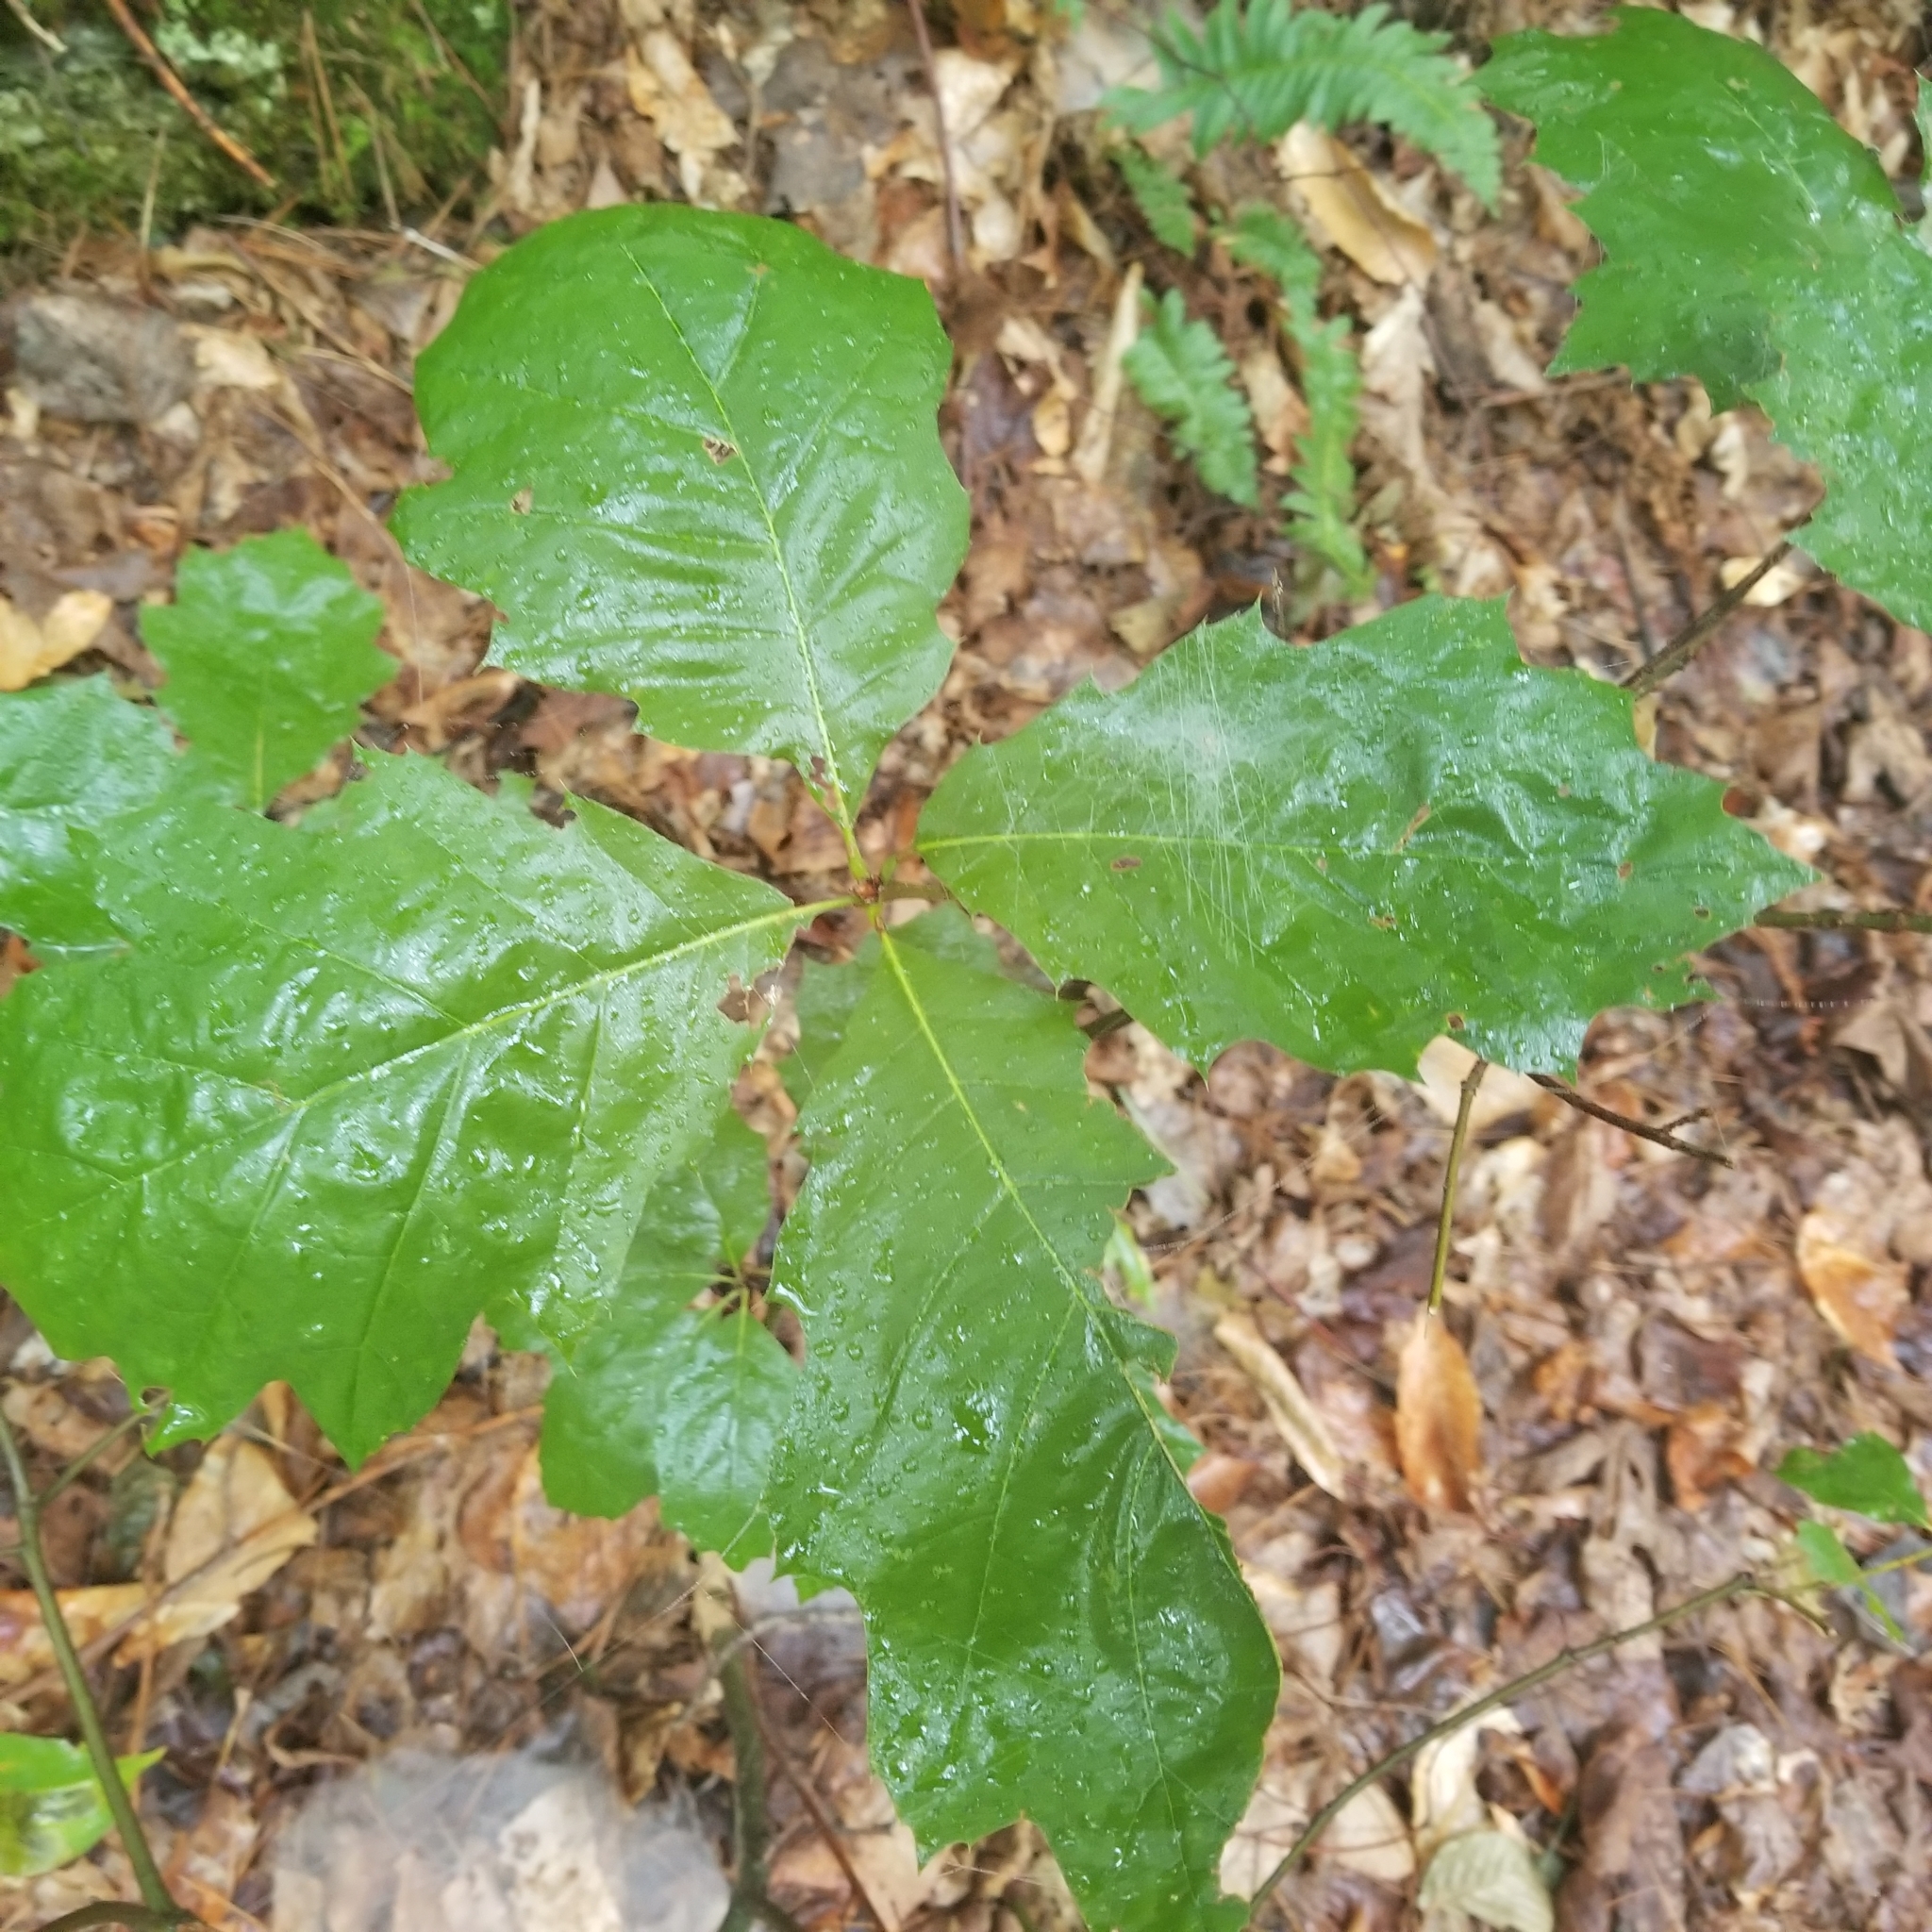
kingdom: Plantae
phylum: Tracheophyta
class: Magnoliopsida
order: Fagales
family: Fagaceae
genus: Quercus
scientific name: Quercus rubra
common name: Red oak
